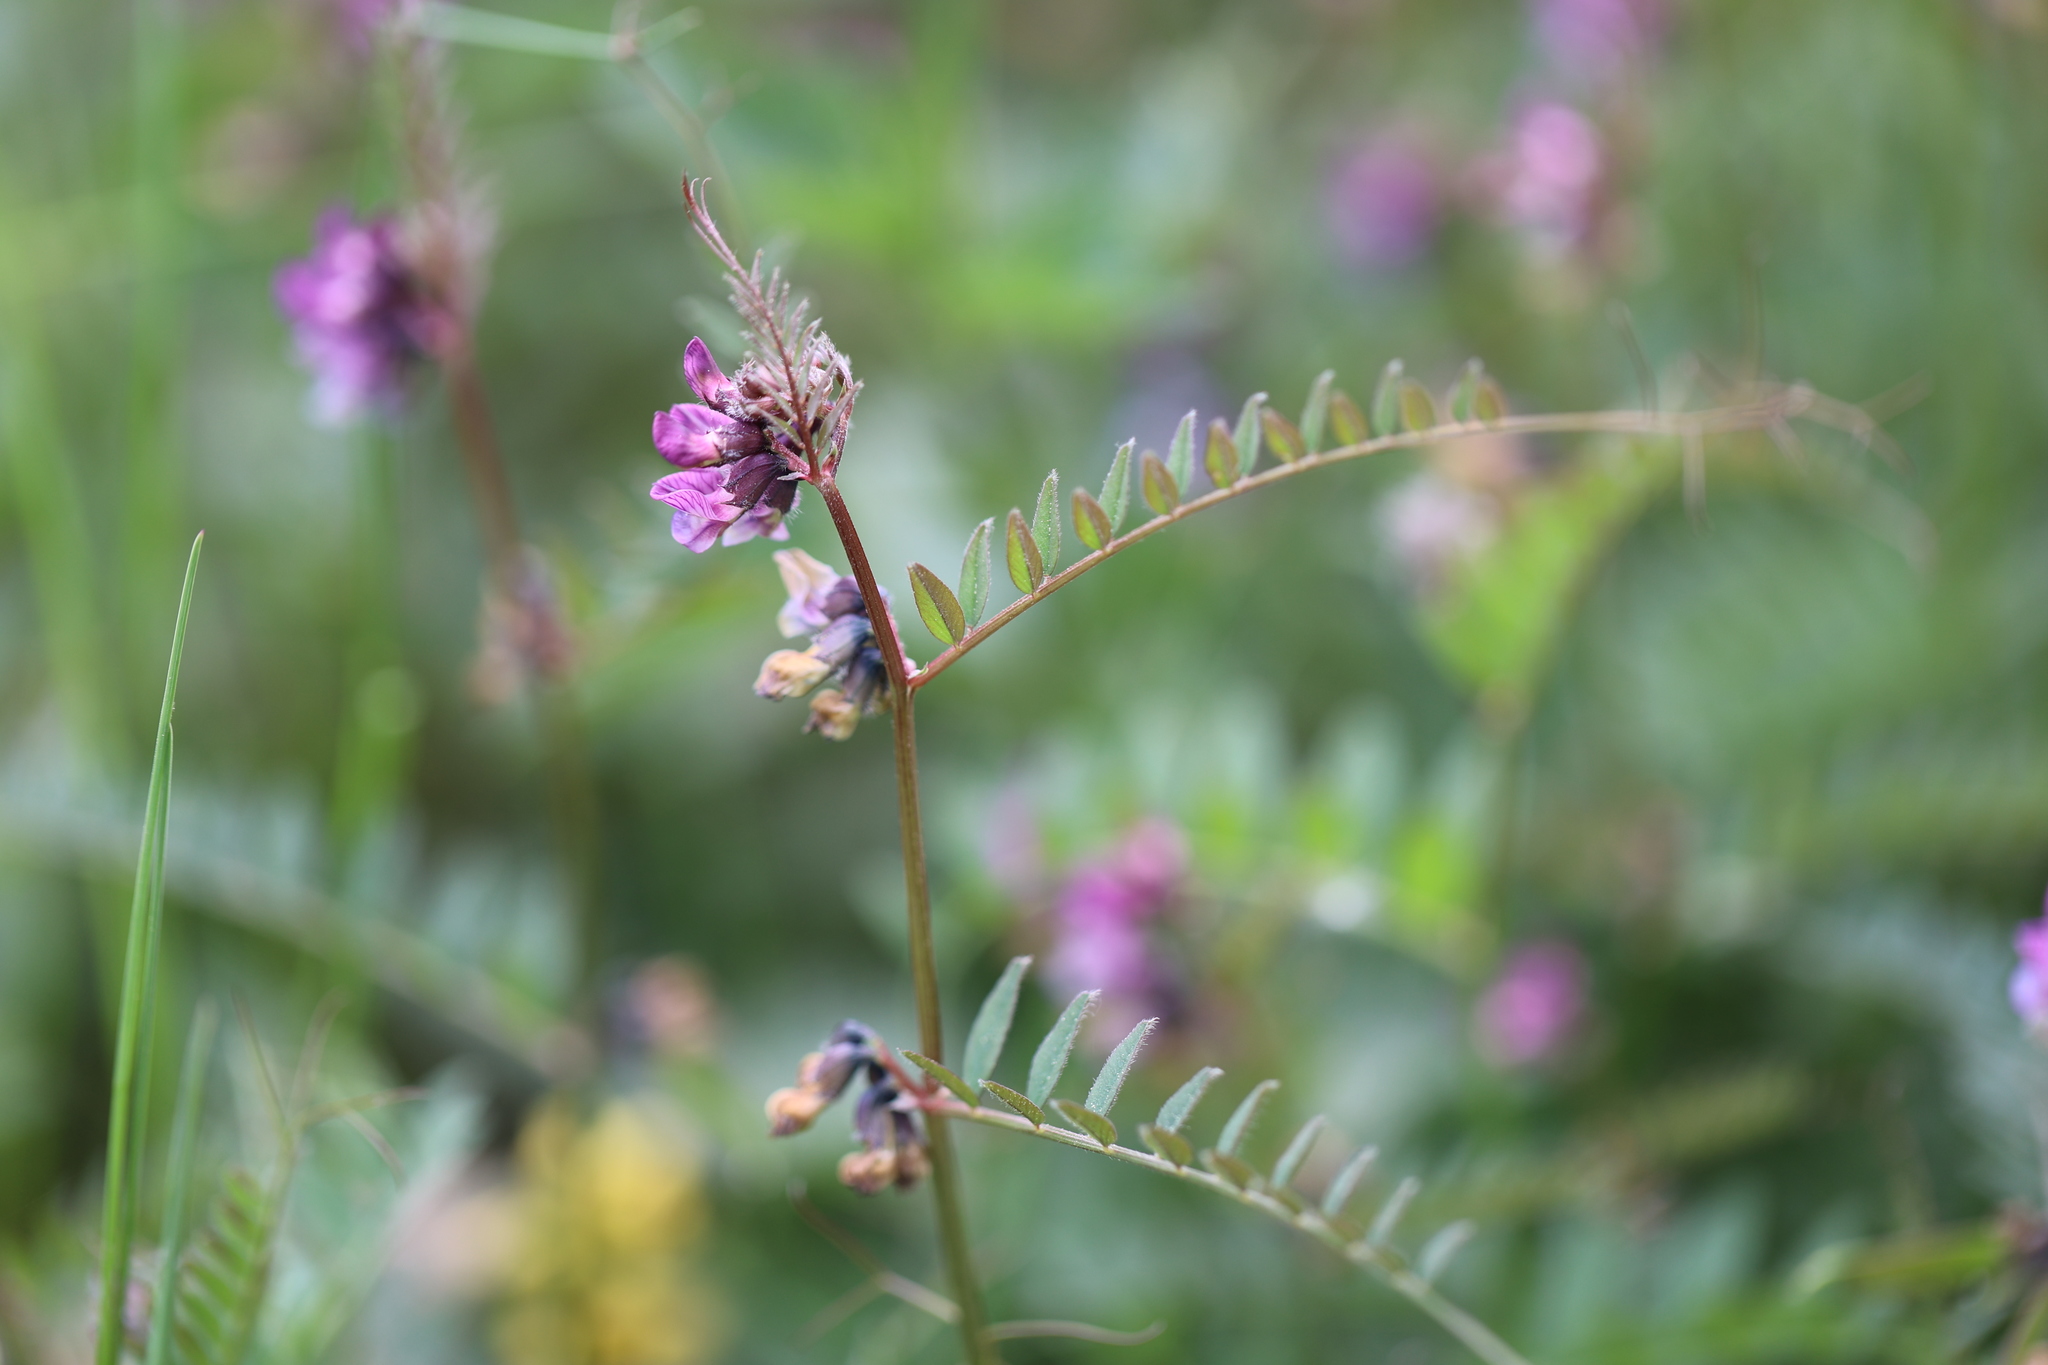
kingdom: Plantae
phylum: Tracheophyta
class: Magnoliopsida
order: Fabales
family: Fabaceae
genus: Vicia
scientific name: Vicia sepium
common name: Bush vetch
